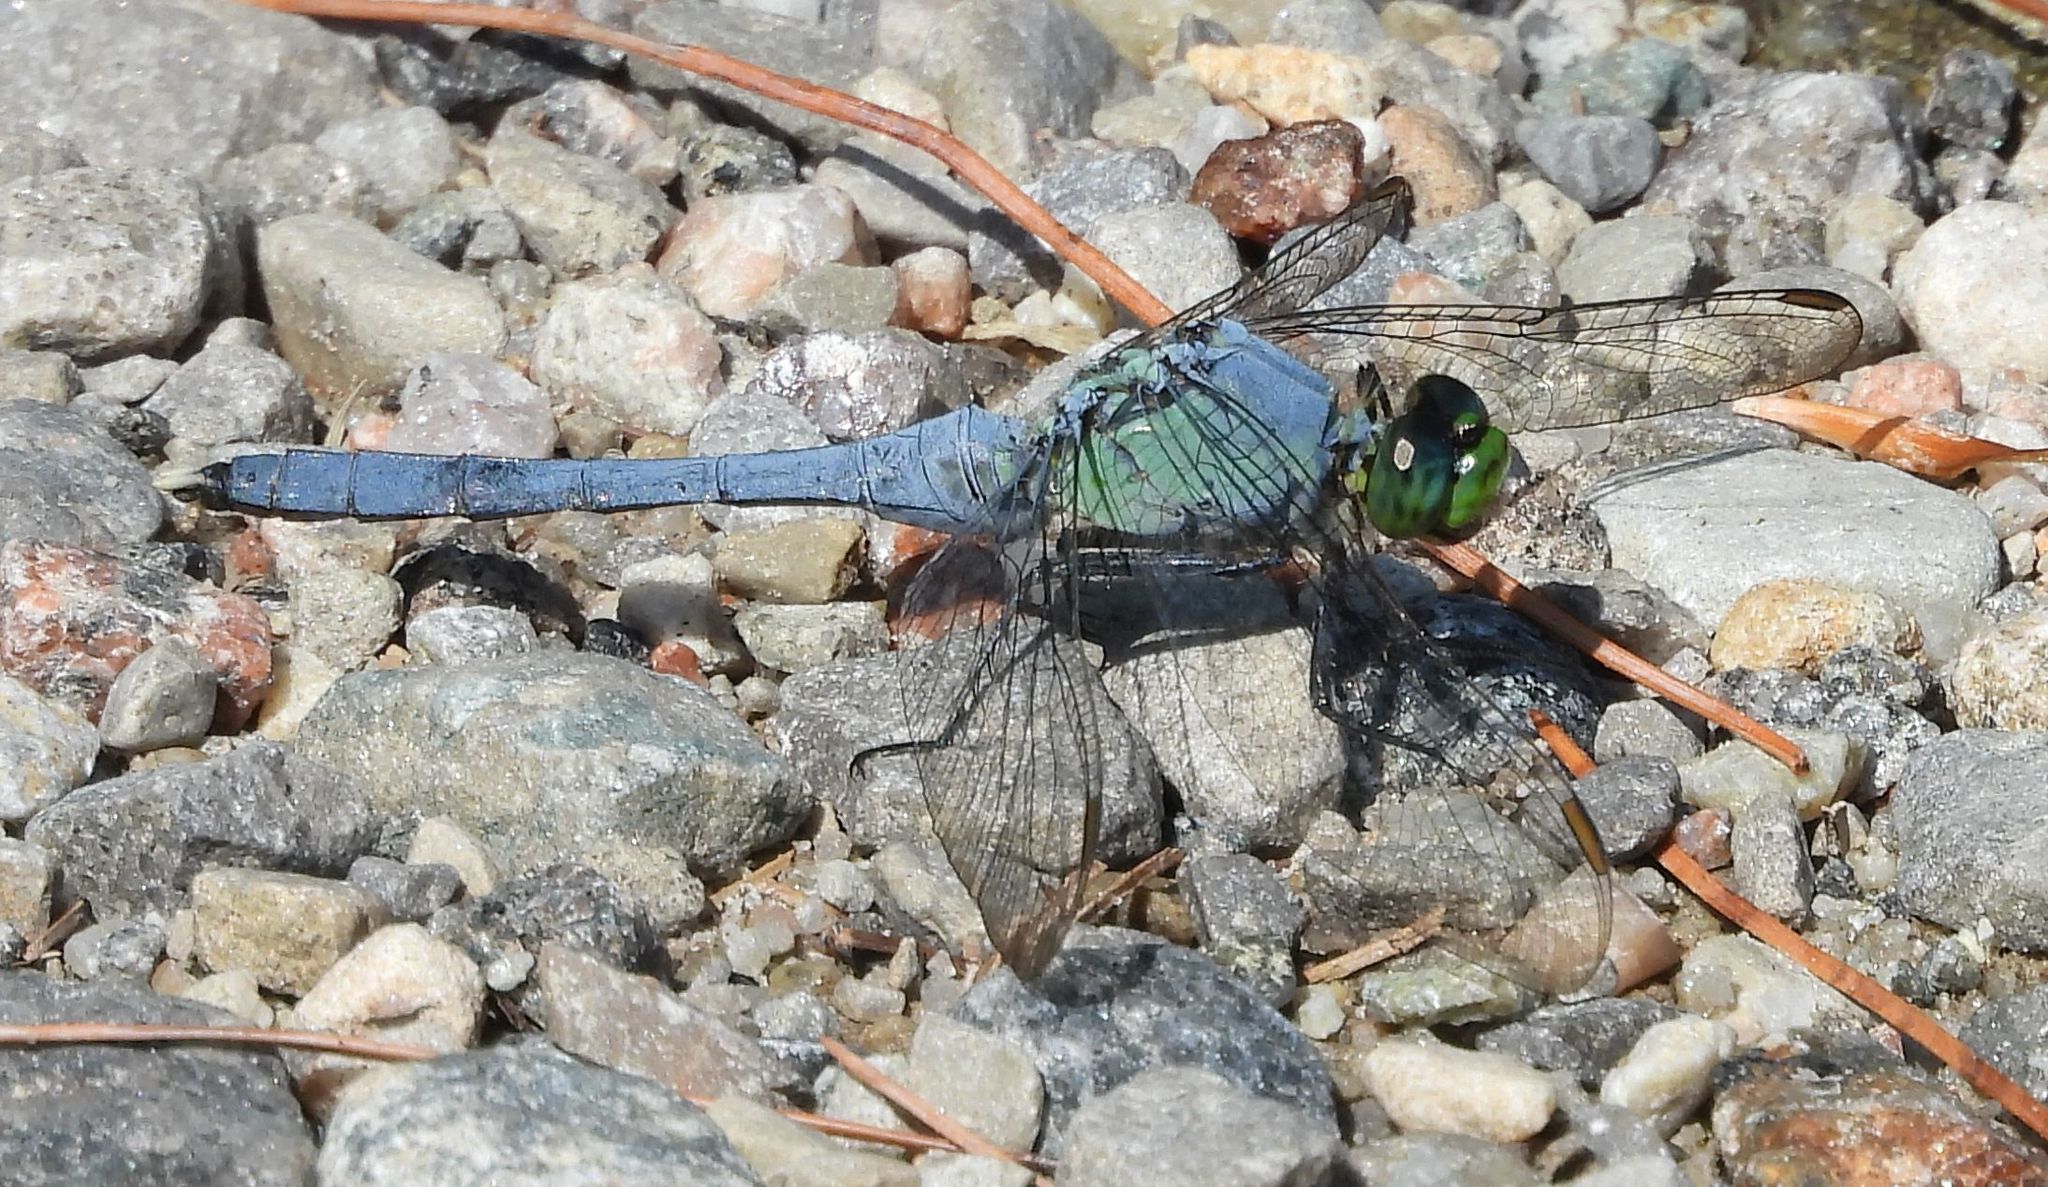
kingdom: Animalia
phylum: Arthropoda
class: Insecta
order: Odonata
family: Libellulidae
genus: Erythemis
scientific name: Erythemis simplicicollis
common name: Eastern pondhawk
